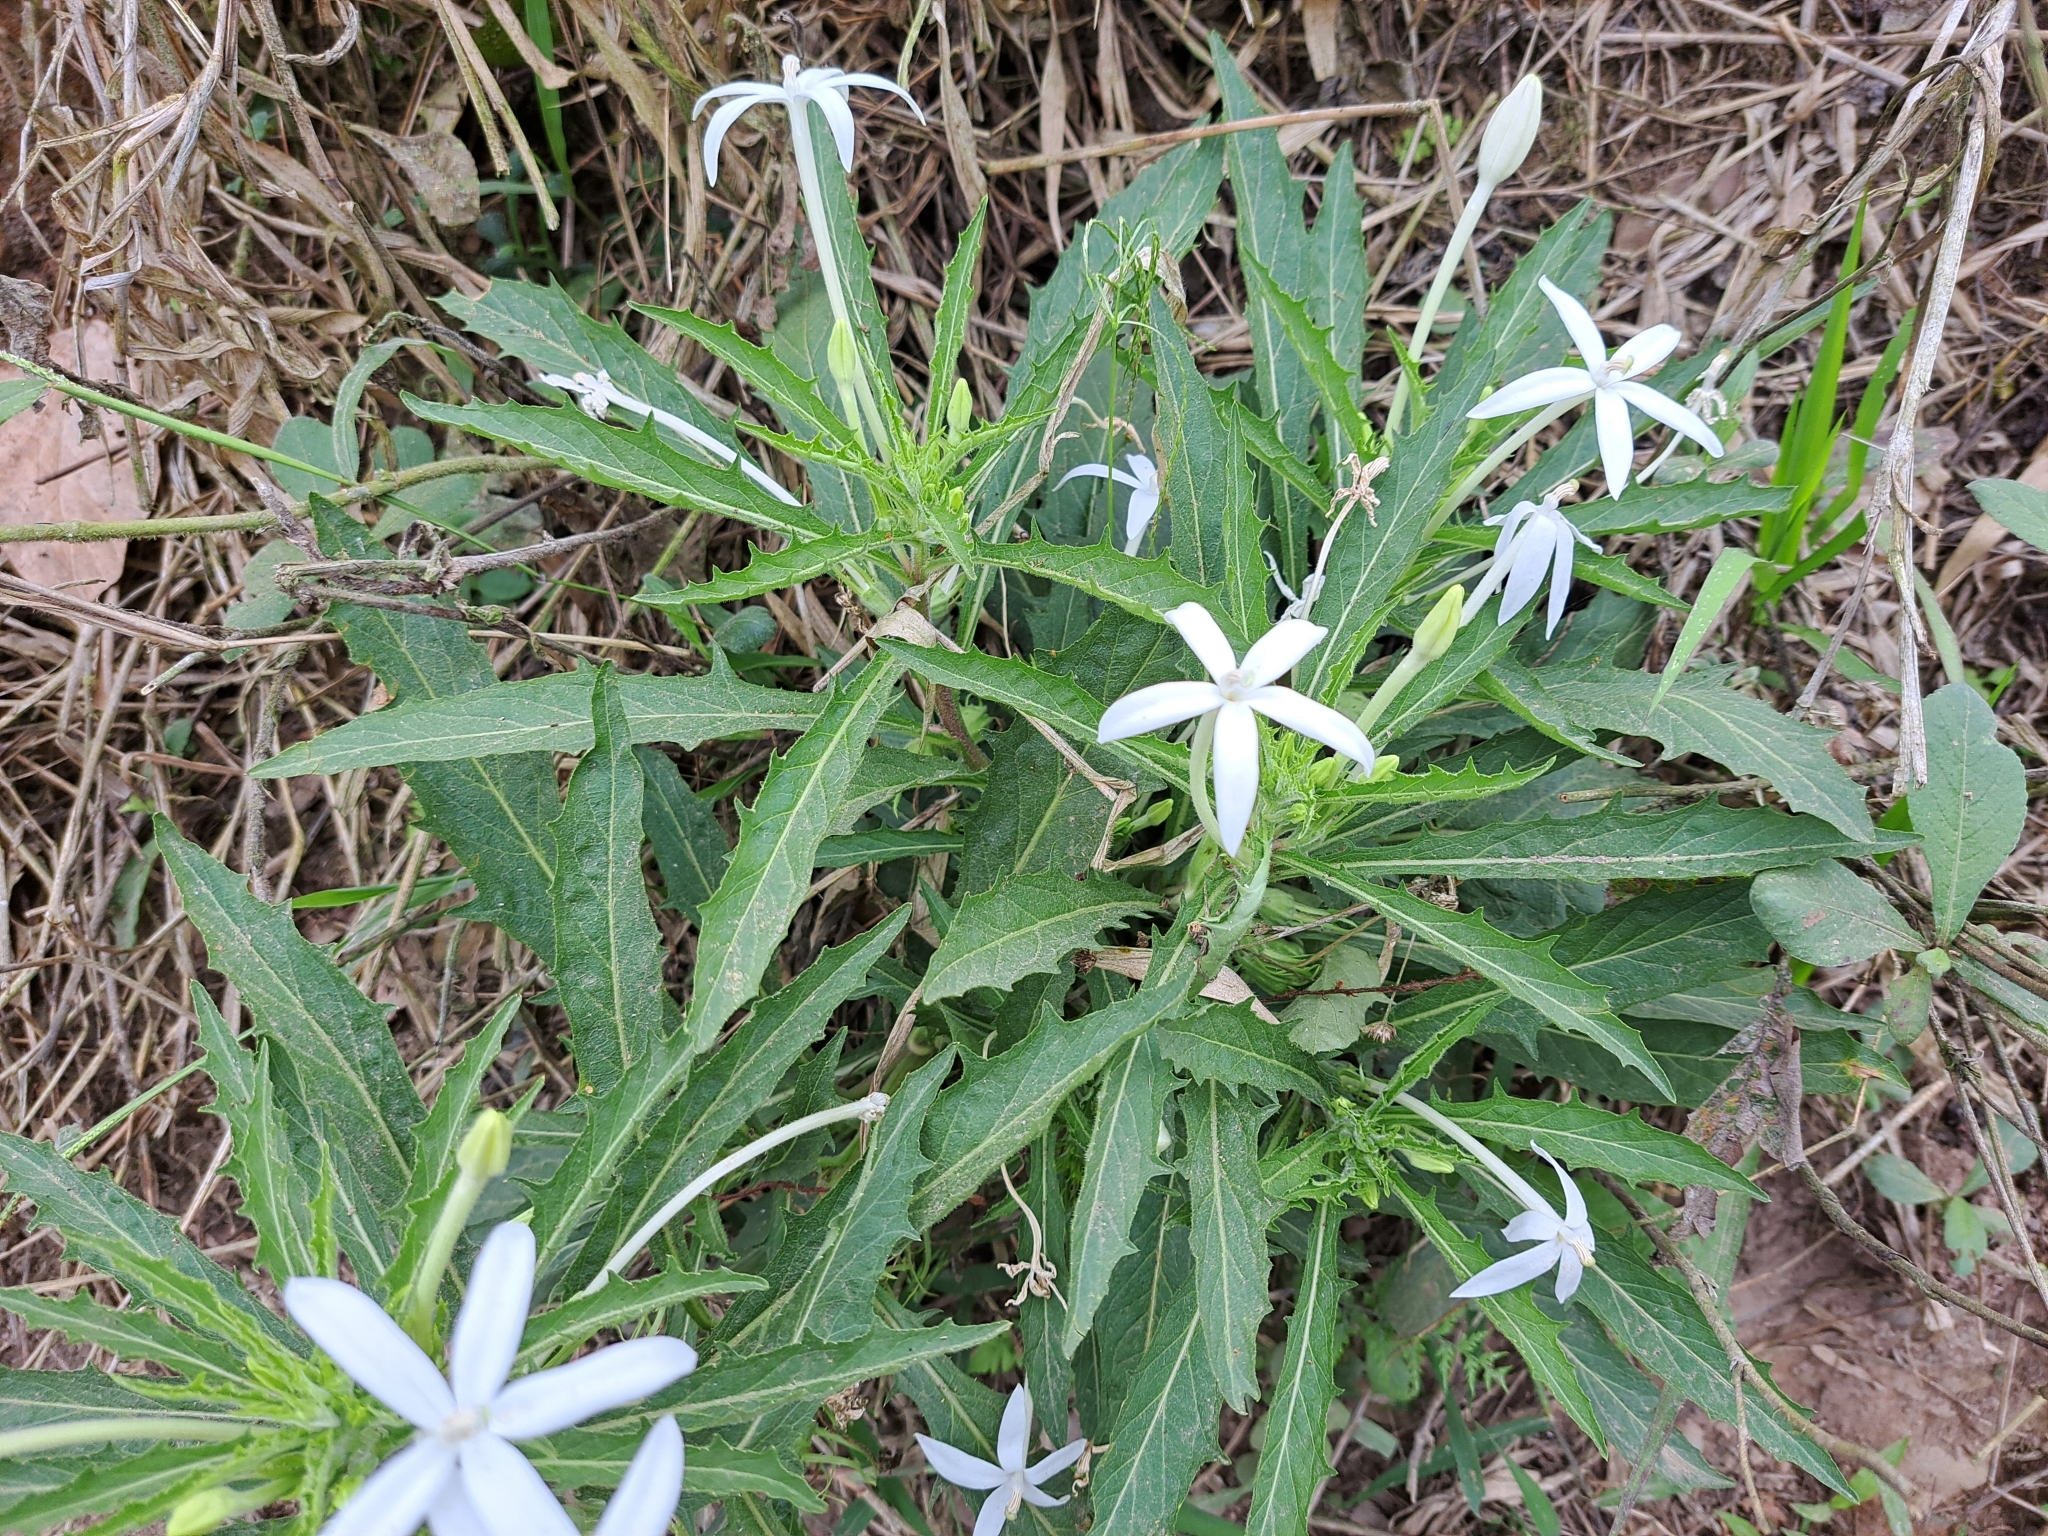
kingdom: Plantae
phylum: Tracheophyta
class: Magnoliopsida
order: Asterales
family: Campanulaceae
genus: Hippobroma
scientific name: Hippobroma longiflora
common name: Madamfate
